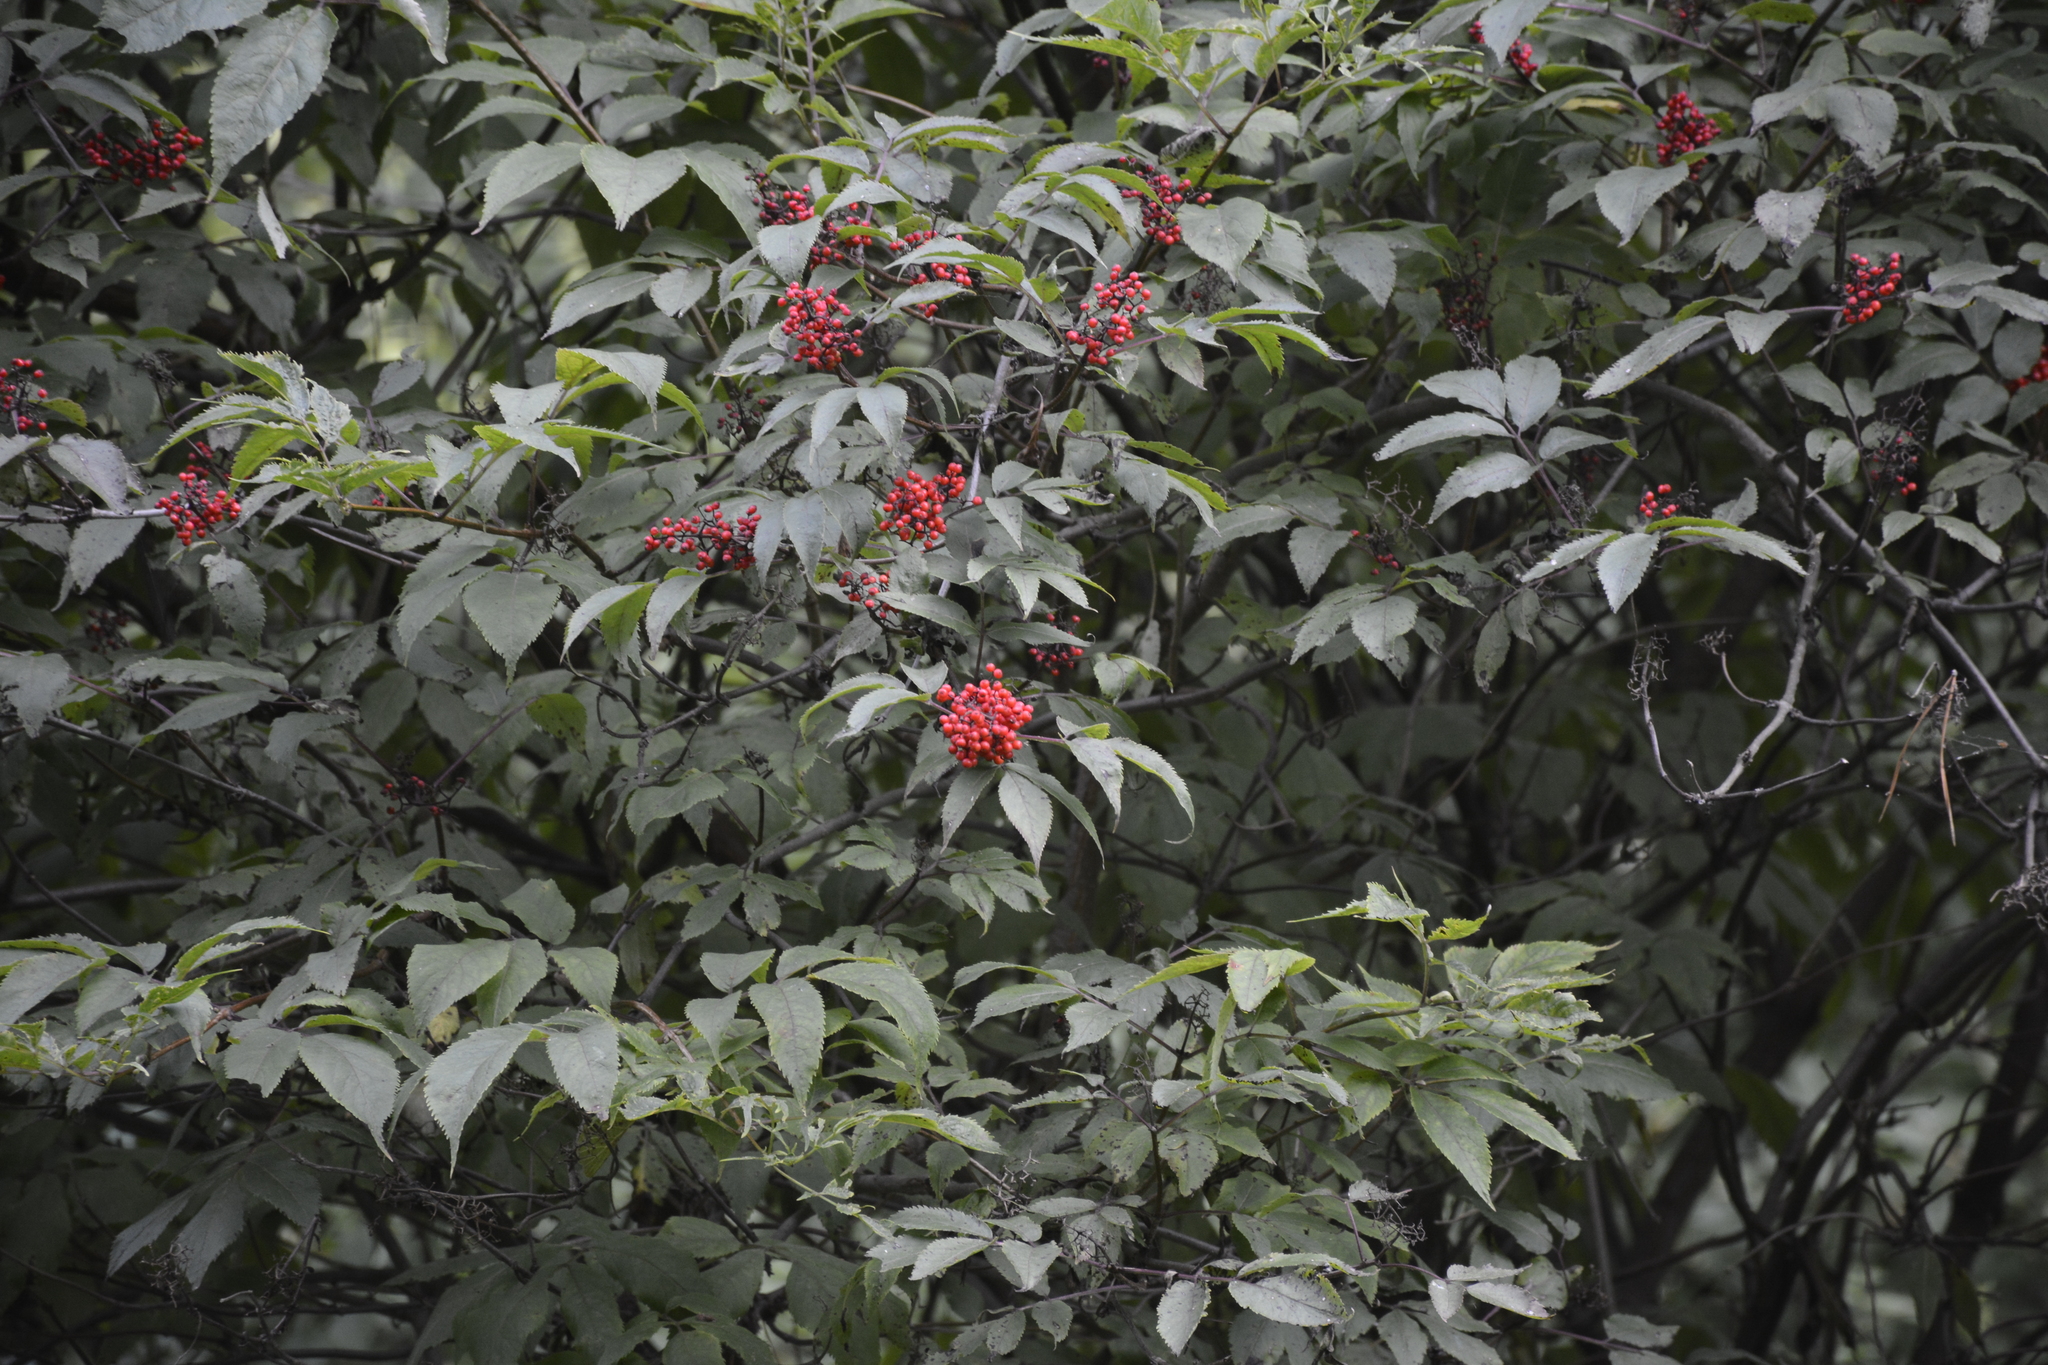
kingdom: Plantae
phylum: Tracheophyta
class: Magnoliopsida
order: Dipsacales
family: Viburnaceae
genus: Sambucus
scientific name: Sambucus racemosa
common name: Red-berried elder
